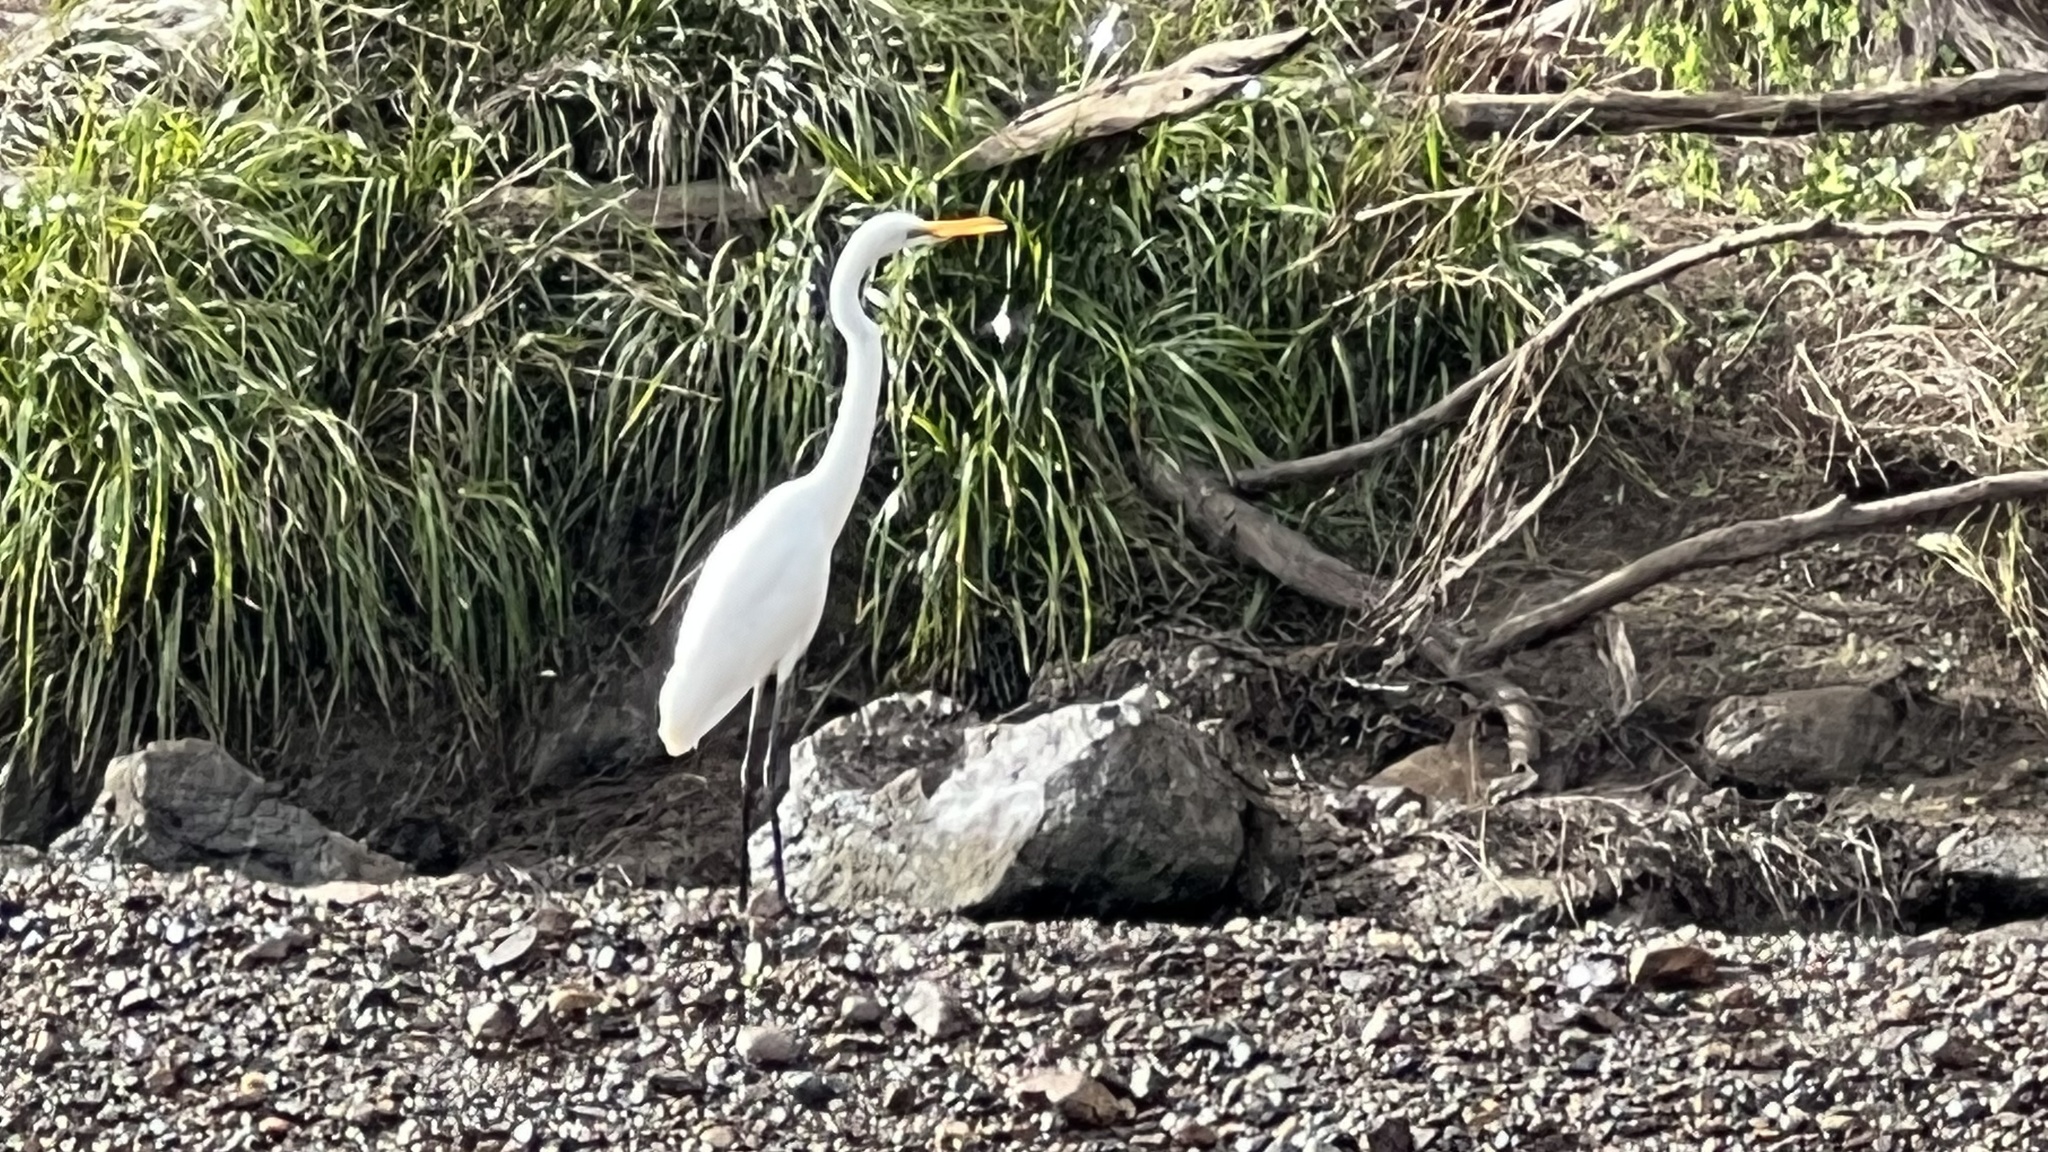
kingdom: Animalia
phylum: Chordata
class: Aves
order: Pelecaniformes
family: Ardeidae
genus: Ardea
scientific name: Ardea alba
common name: Great egret
